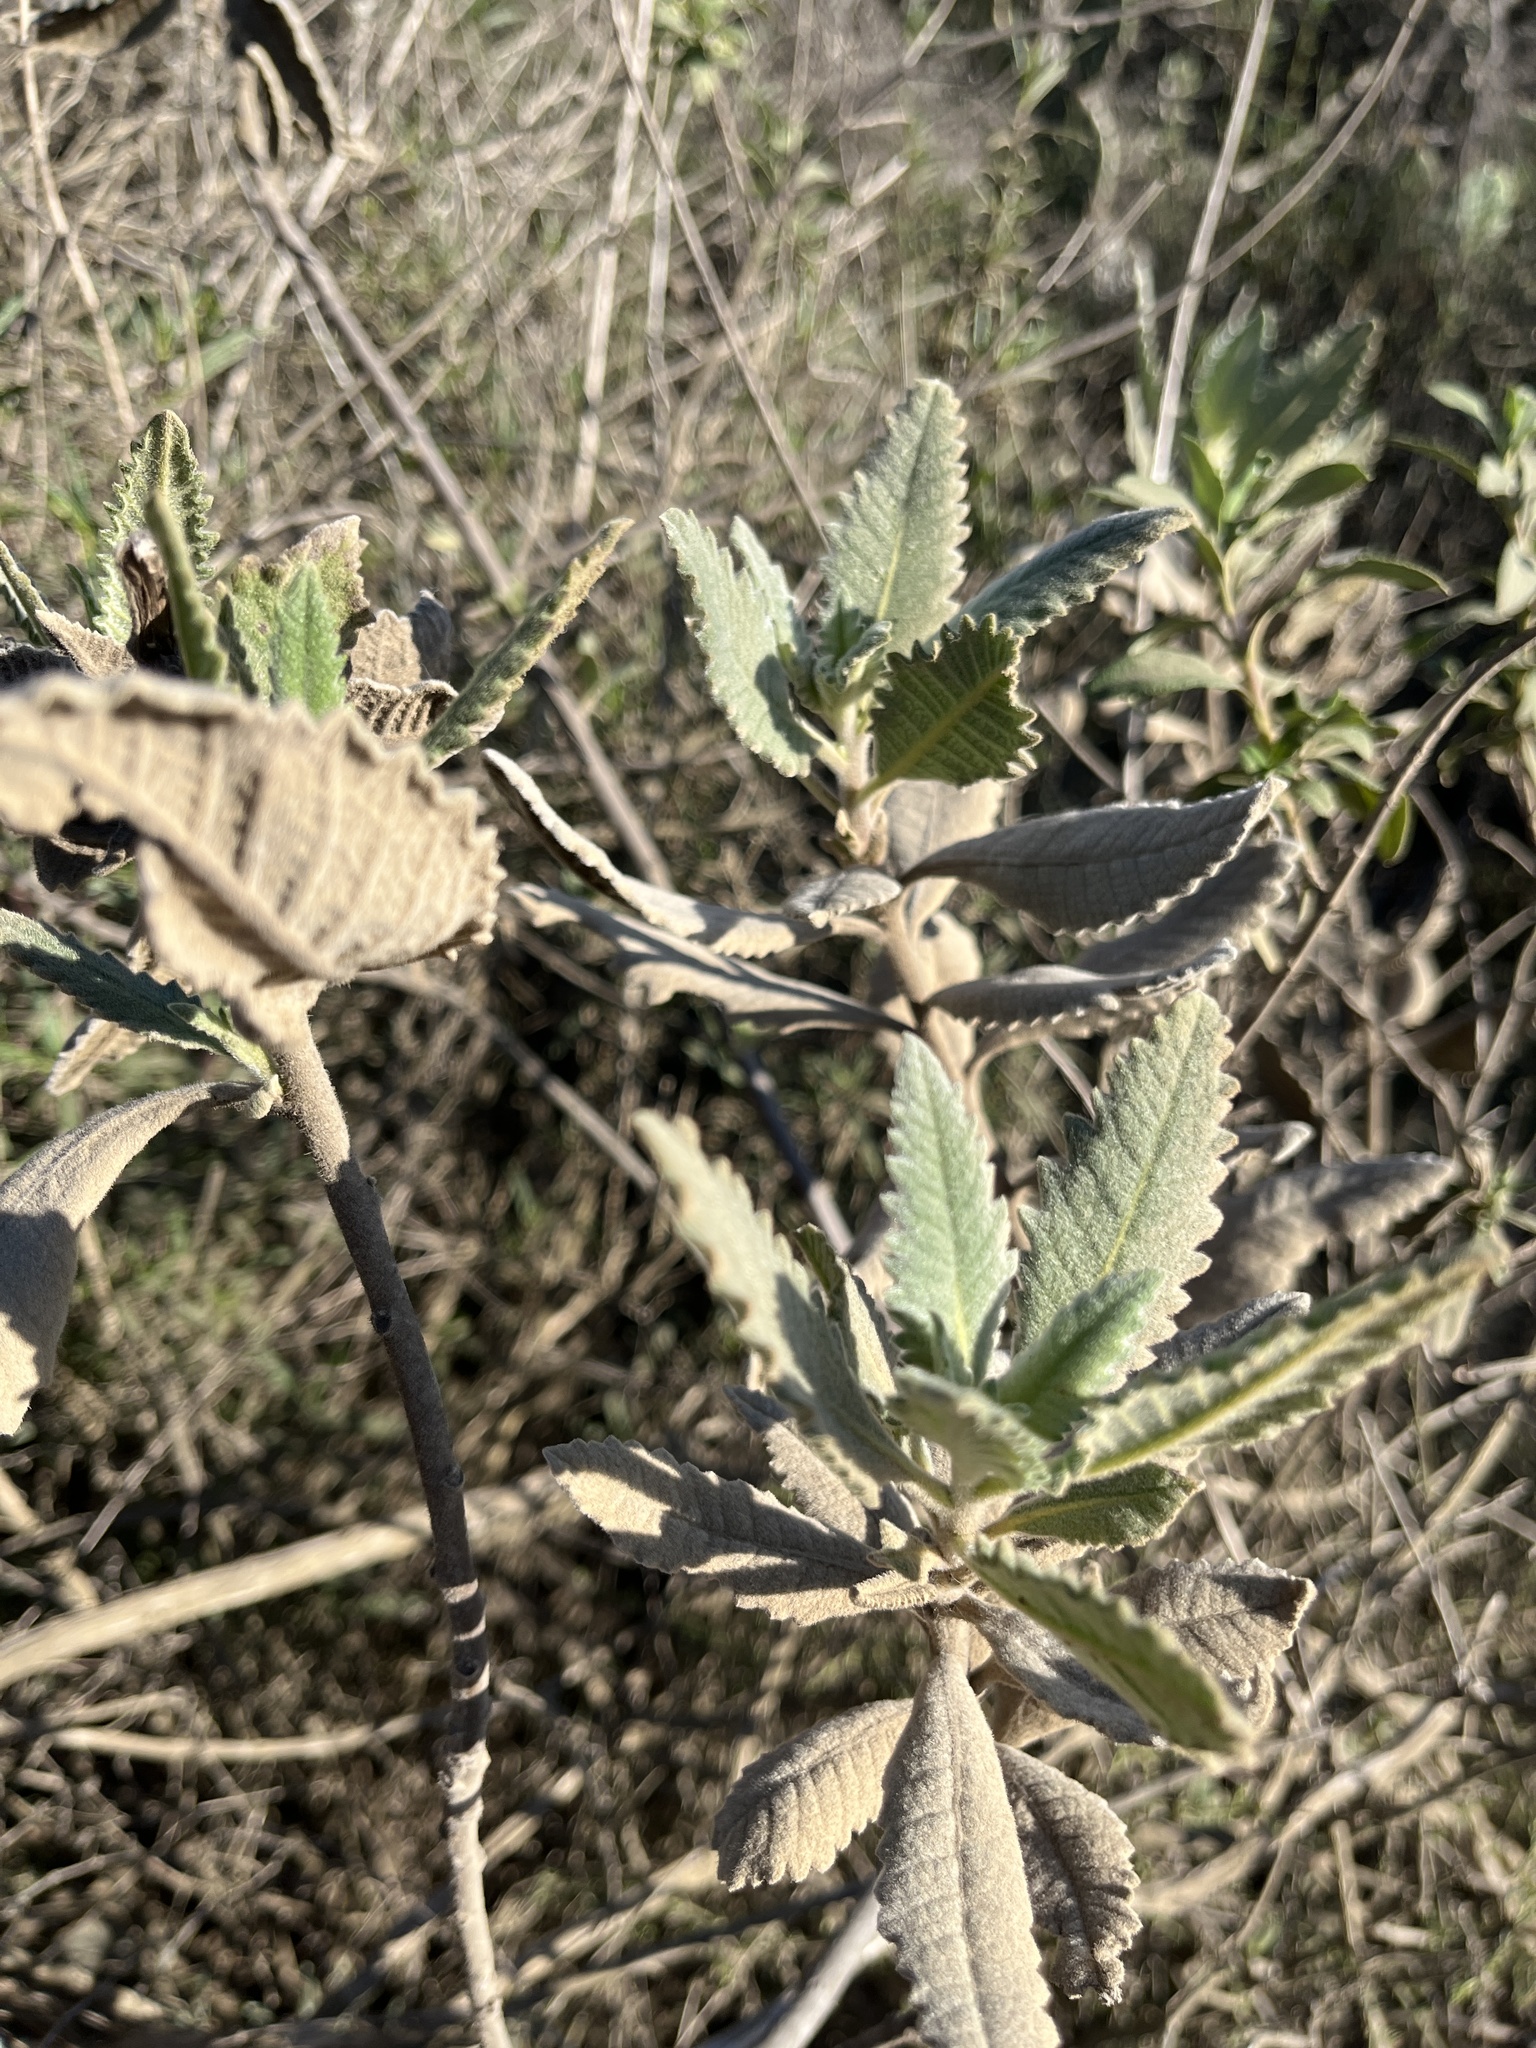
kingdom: Plantae
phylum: Tracheophyta
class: Magnoliopsida
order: Boraginales
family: Namaceae
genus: Eriodictyon
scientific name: Eriodictyon crassifolium
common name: Thick-leaf yerba-santa
